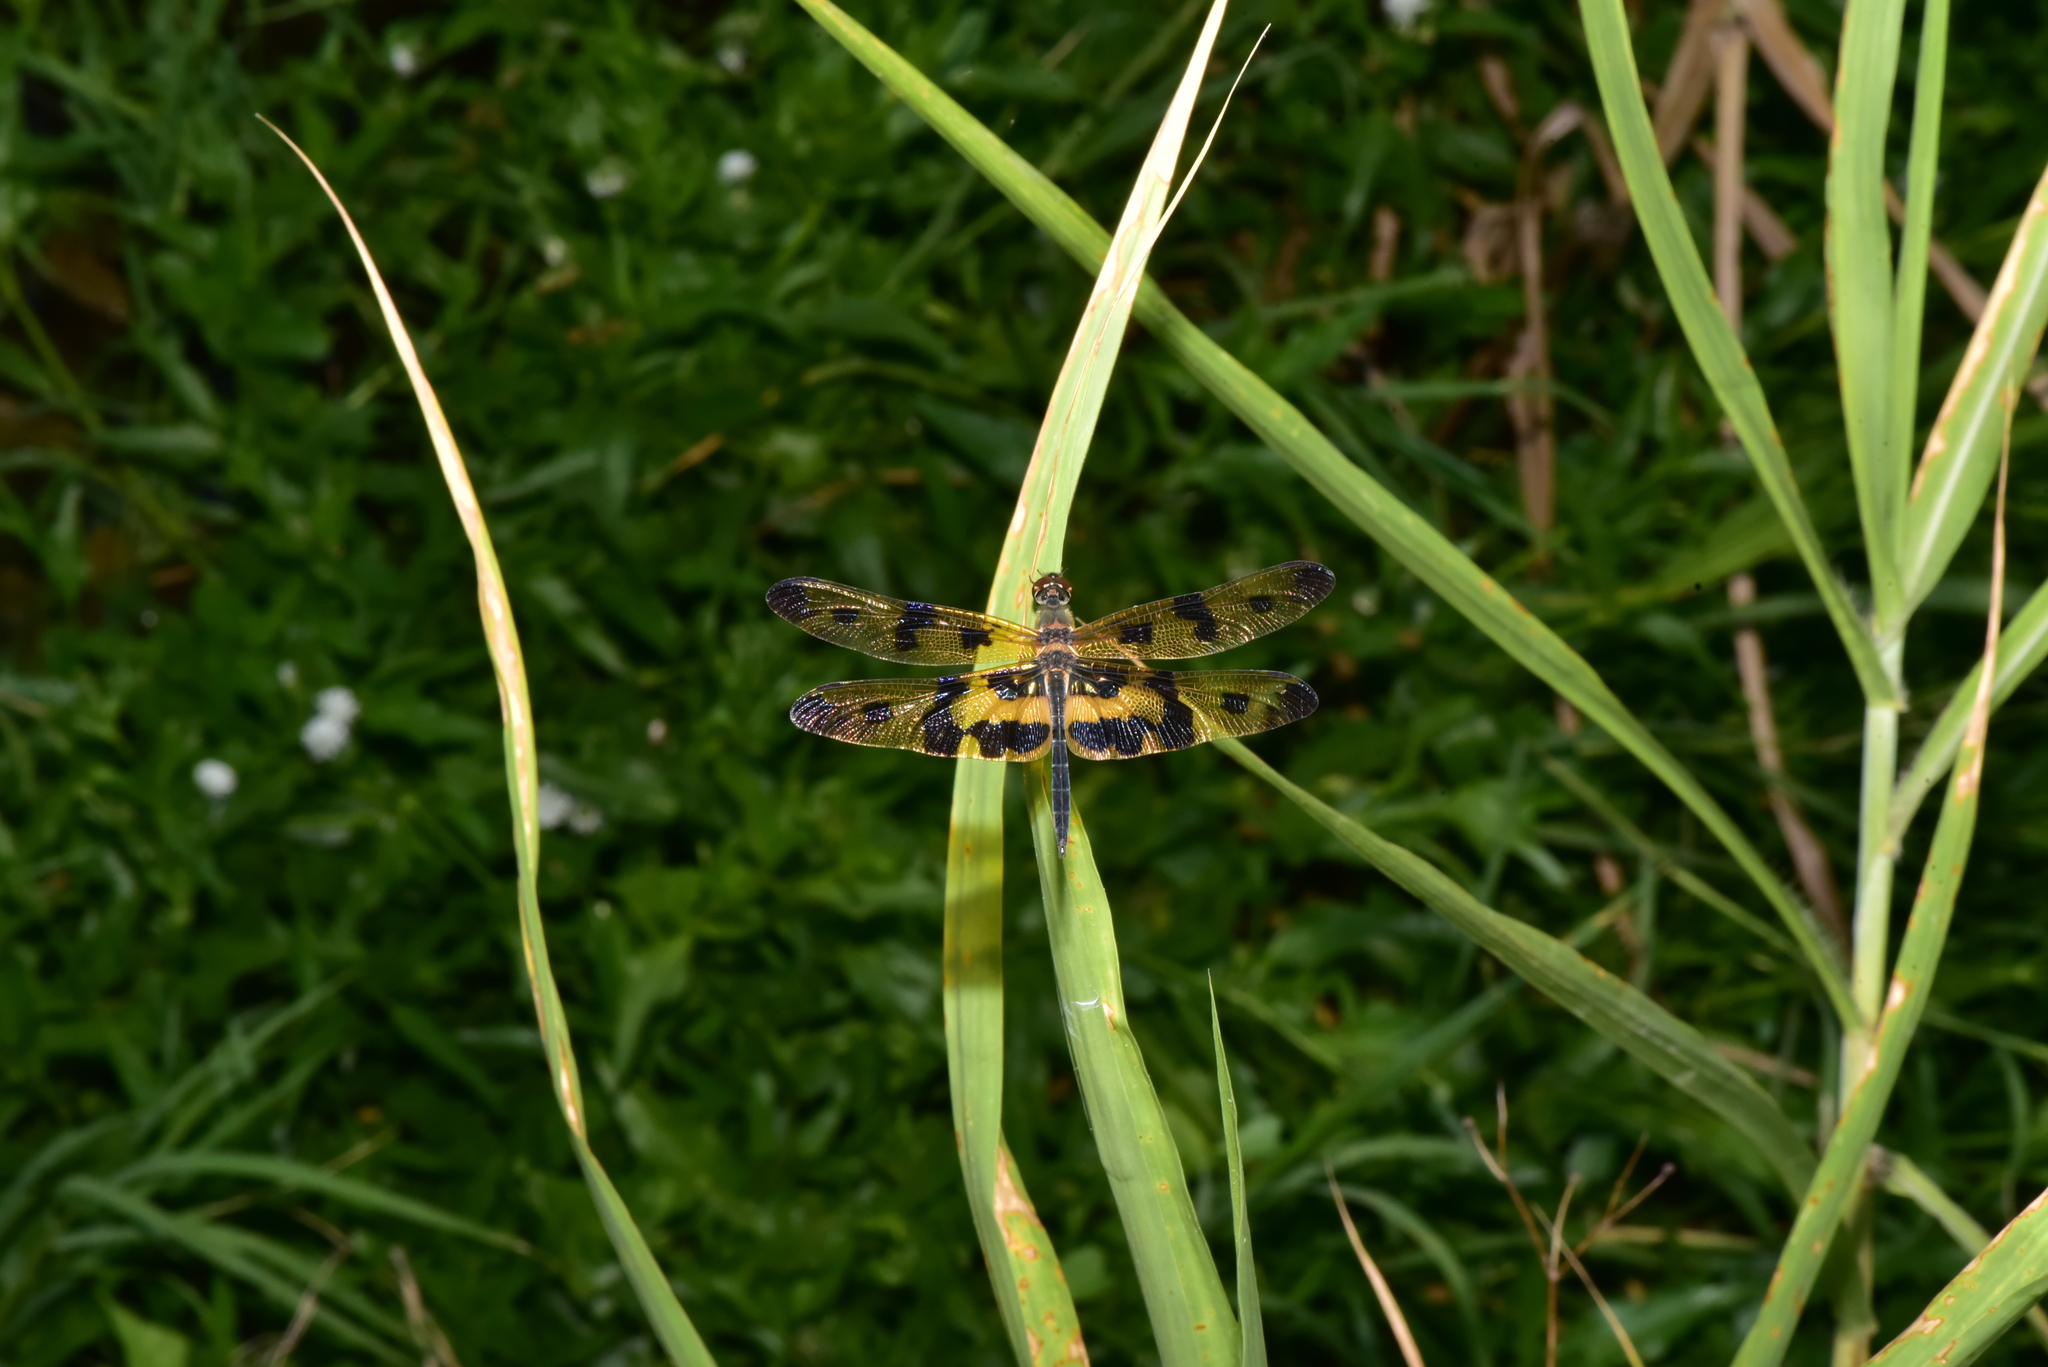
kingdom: Animalia
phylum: Arthropoda
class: Insecta
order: Odonata
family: Libellulidae
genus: Rhyothemis
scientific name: Rhyothemis variegata
